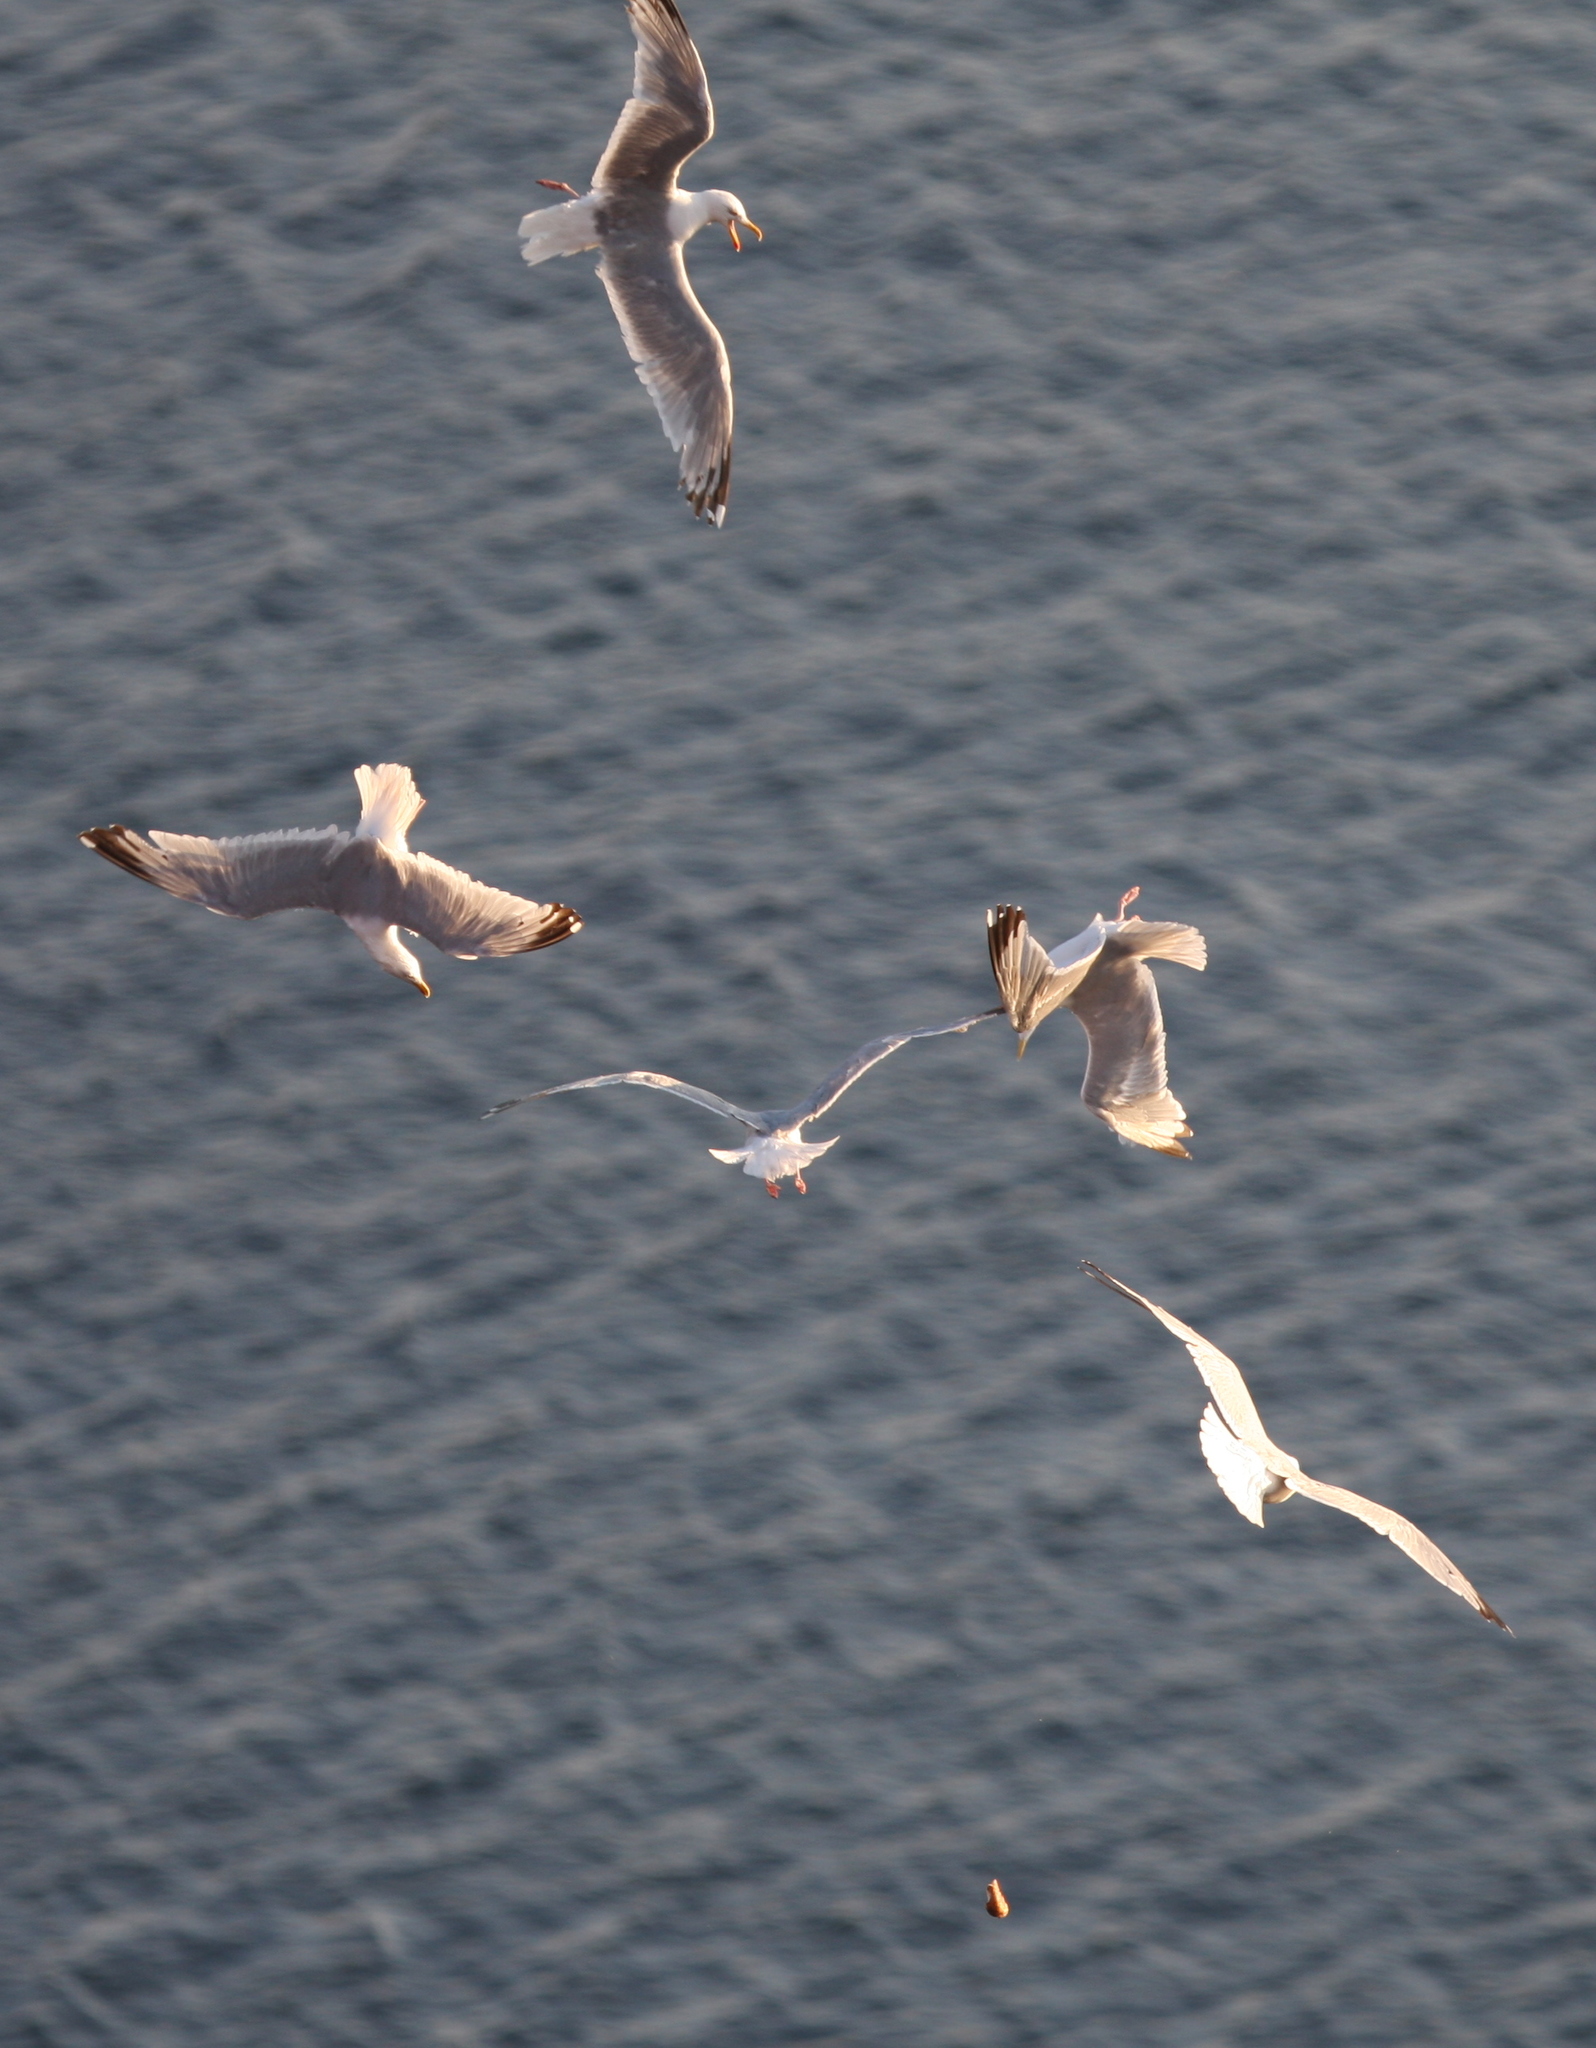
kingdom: Animalia
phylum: Chordata
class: Aves
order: Charadriiformes
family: Laridae
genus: Larus
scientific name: Larus argentatus
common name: Herring gull
